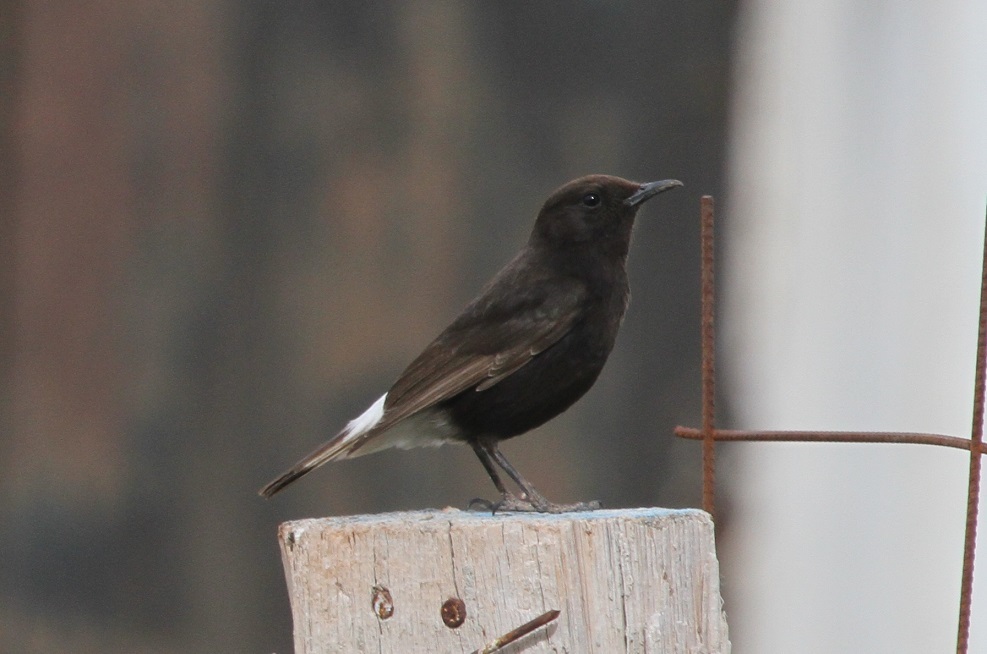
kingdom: Animalia
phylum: Chordata
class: Aves
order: Passeriformes
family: Muscicapidae
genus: Oenanthe
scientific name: Oenanthe leucura
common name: Black wheatear
